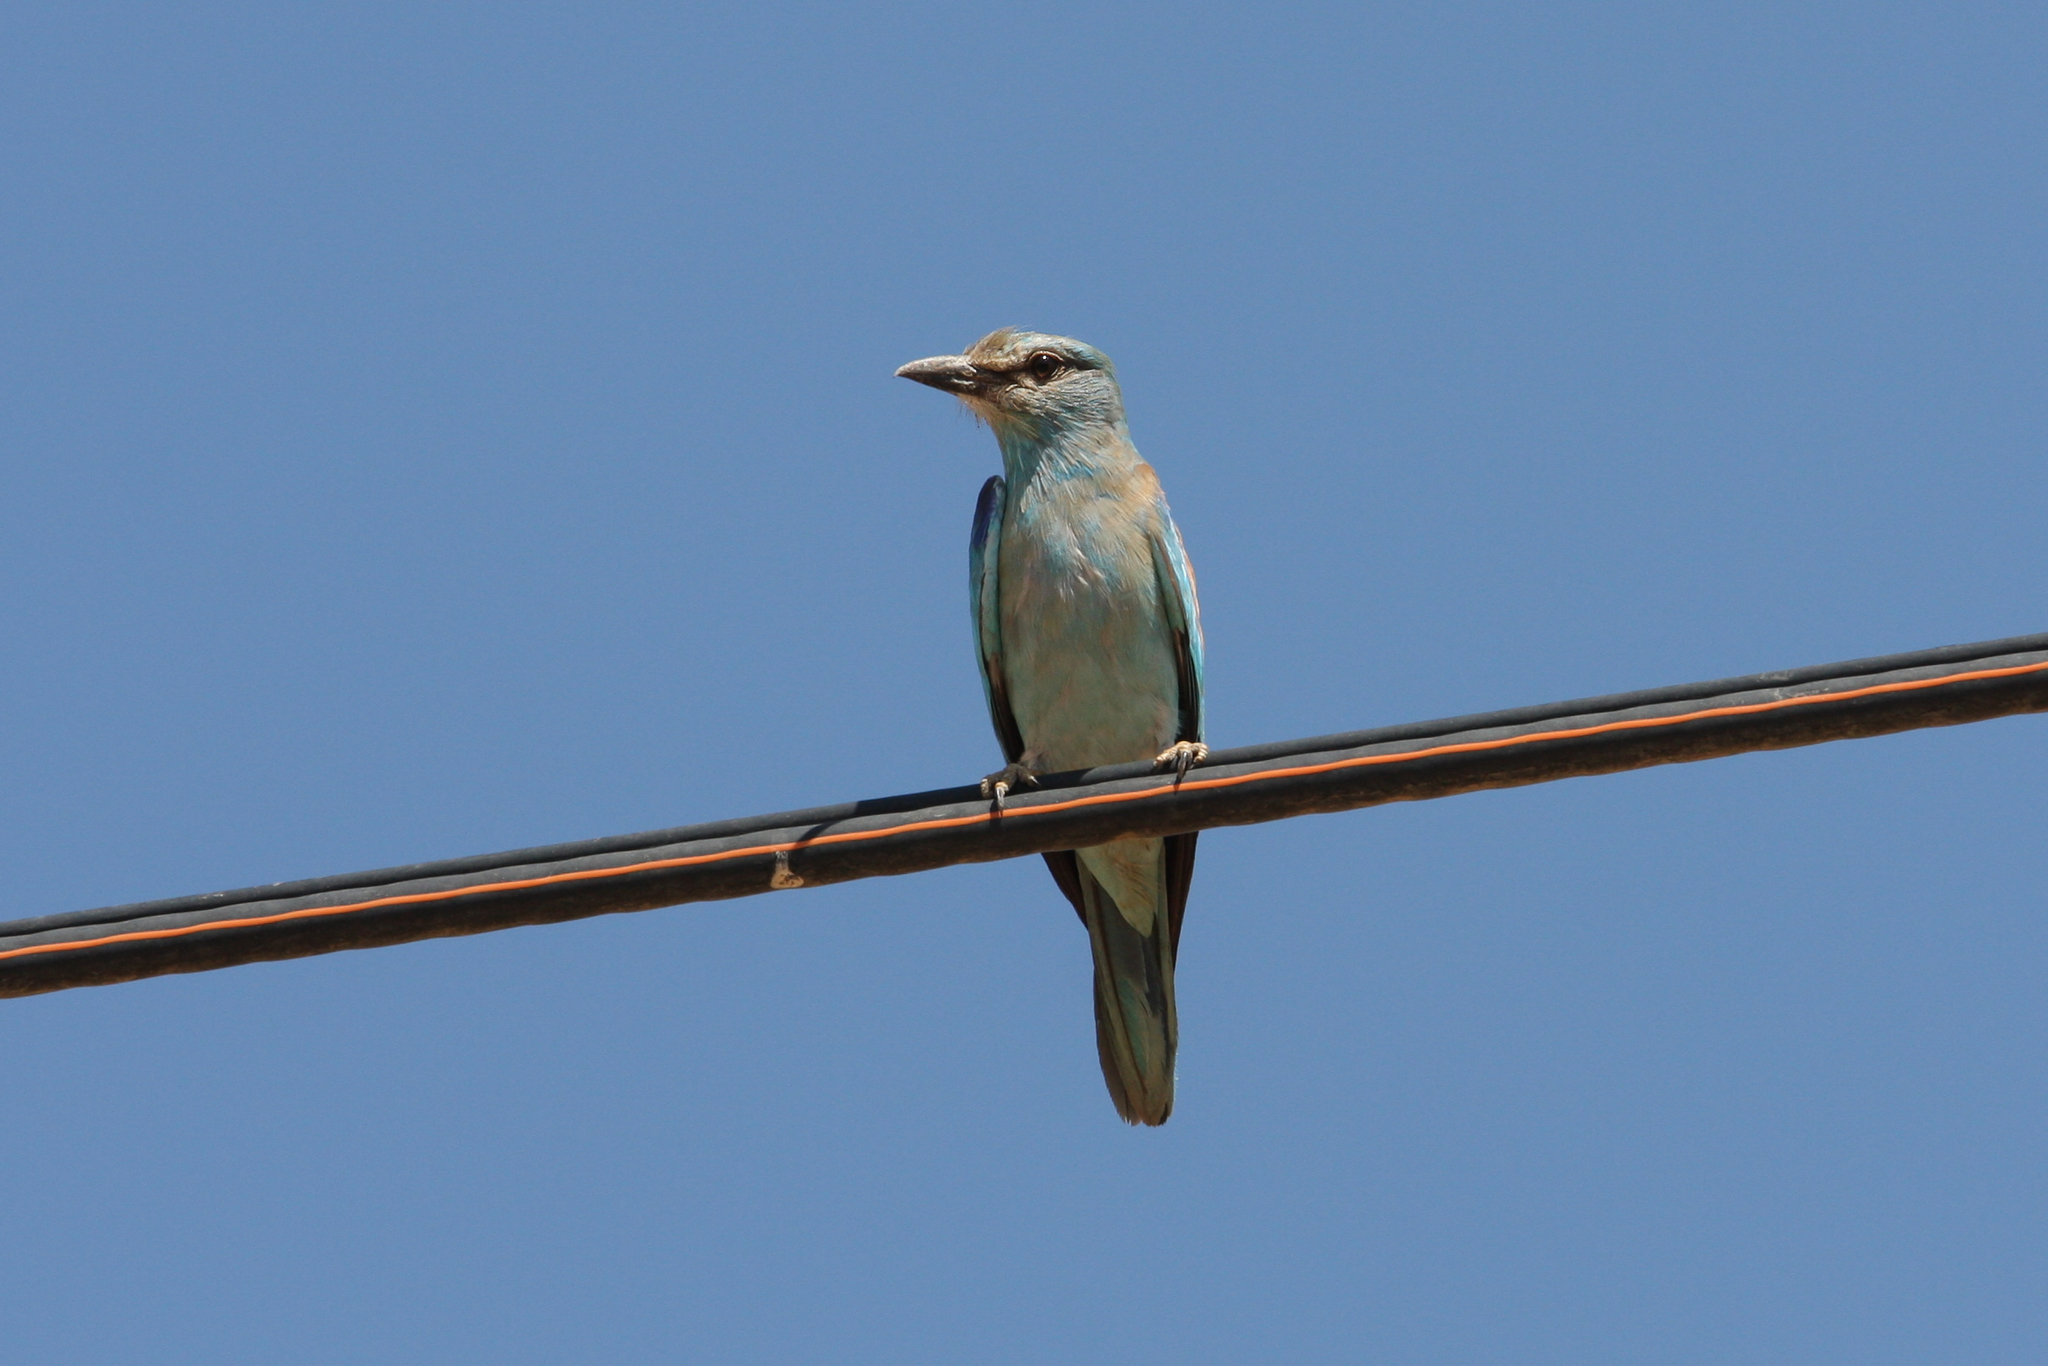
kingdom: Animalia
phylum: Chordata
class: Aves
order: Coraciiformes
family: Coraciidae
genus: Coracias
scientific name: Coracias garrulus
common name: European roller
